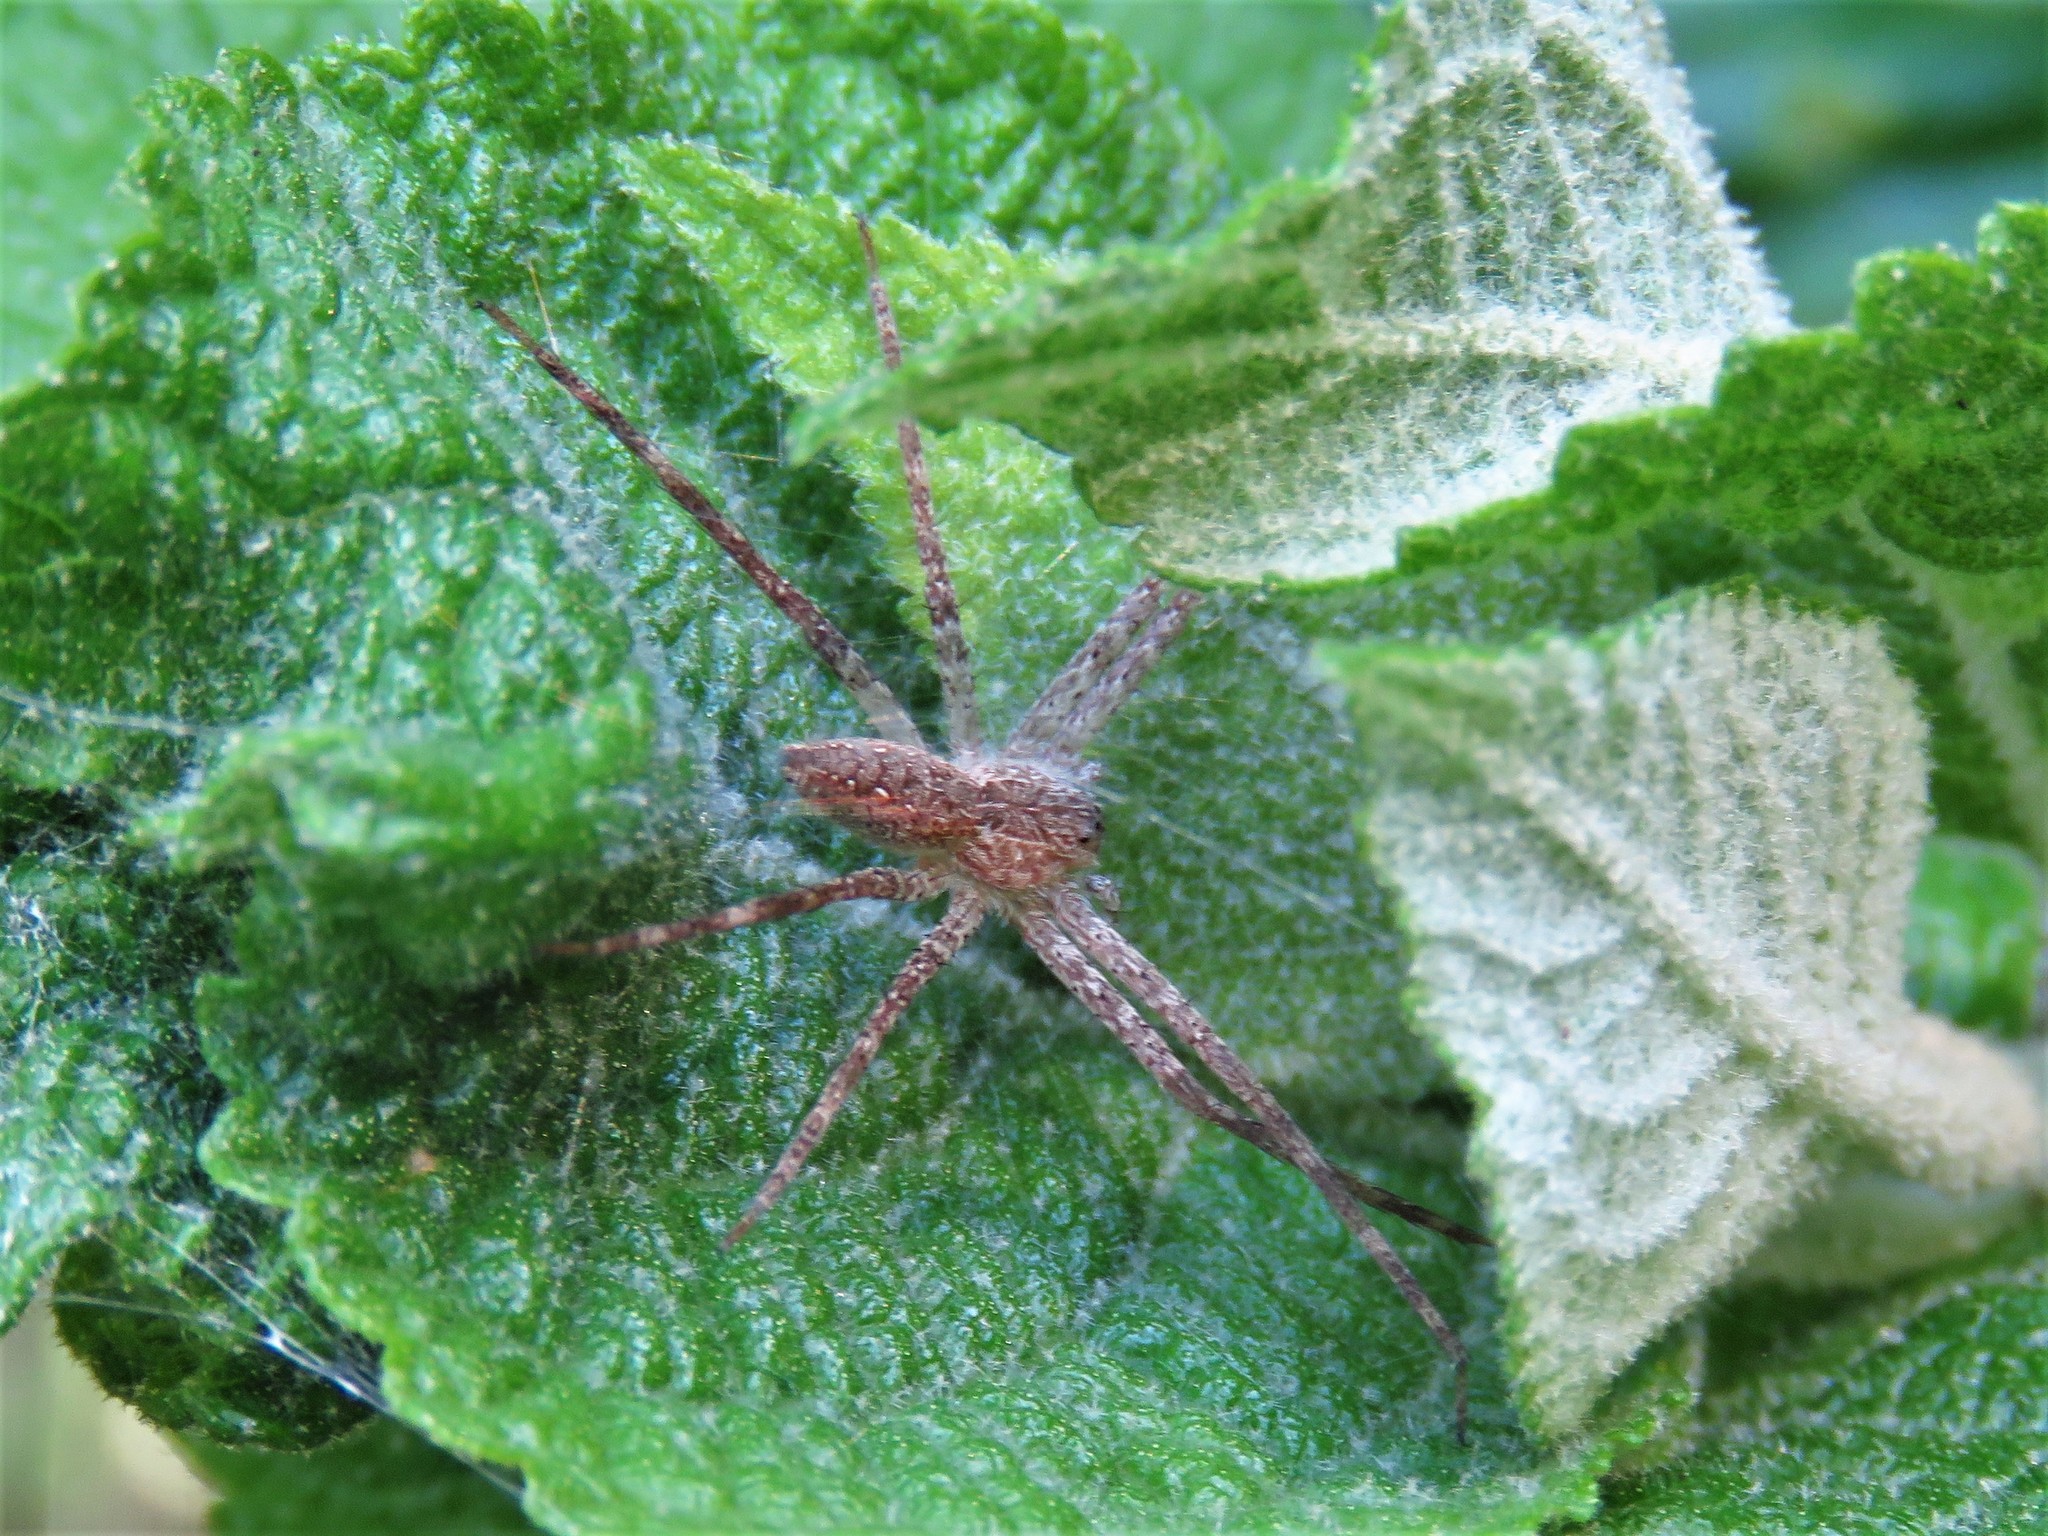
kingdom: Animalia
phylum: Arthropoda
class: Arachnida
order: Araneae
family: Pisauridae
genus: Pisaurina
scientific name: Pisaurina mira
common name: American nursery web spider
